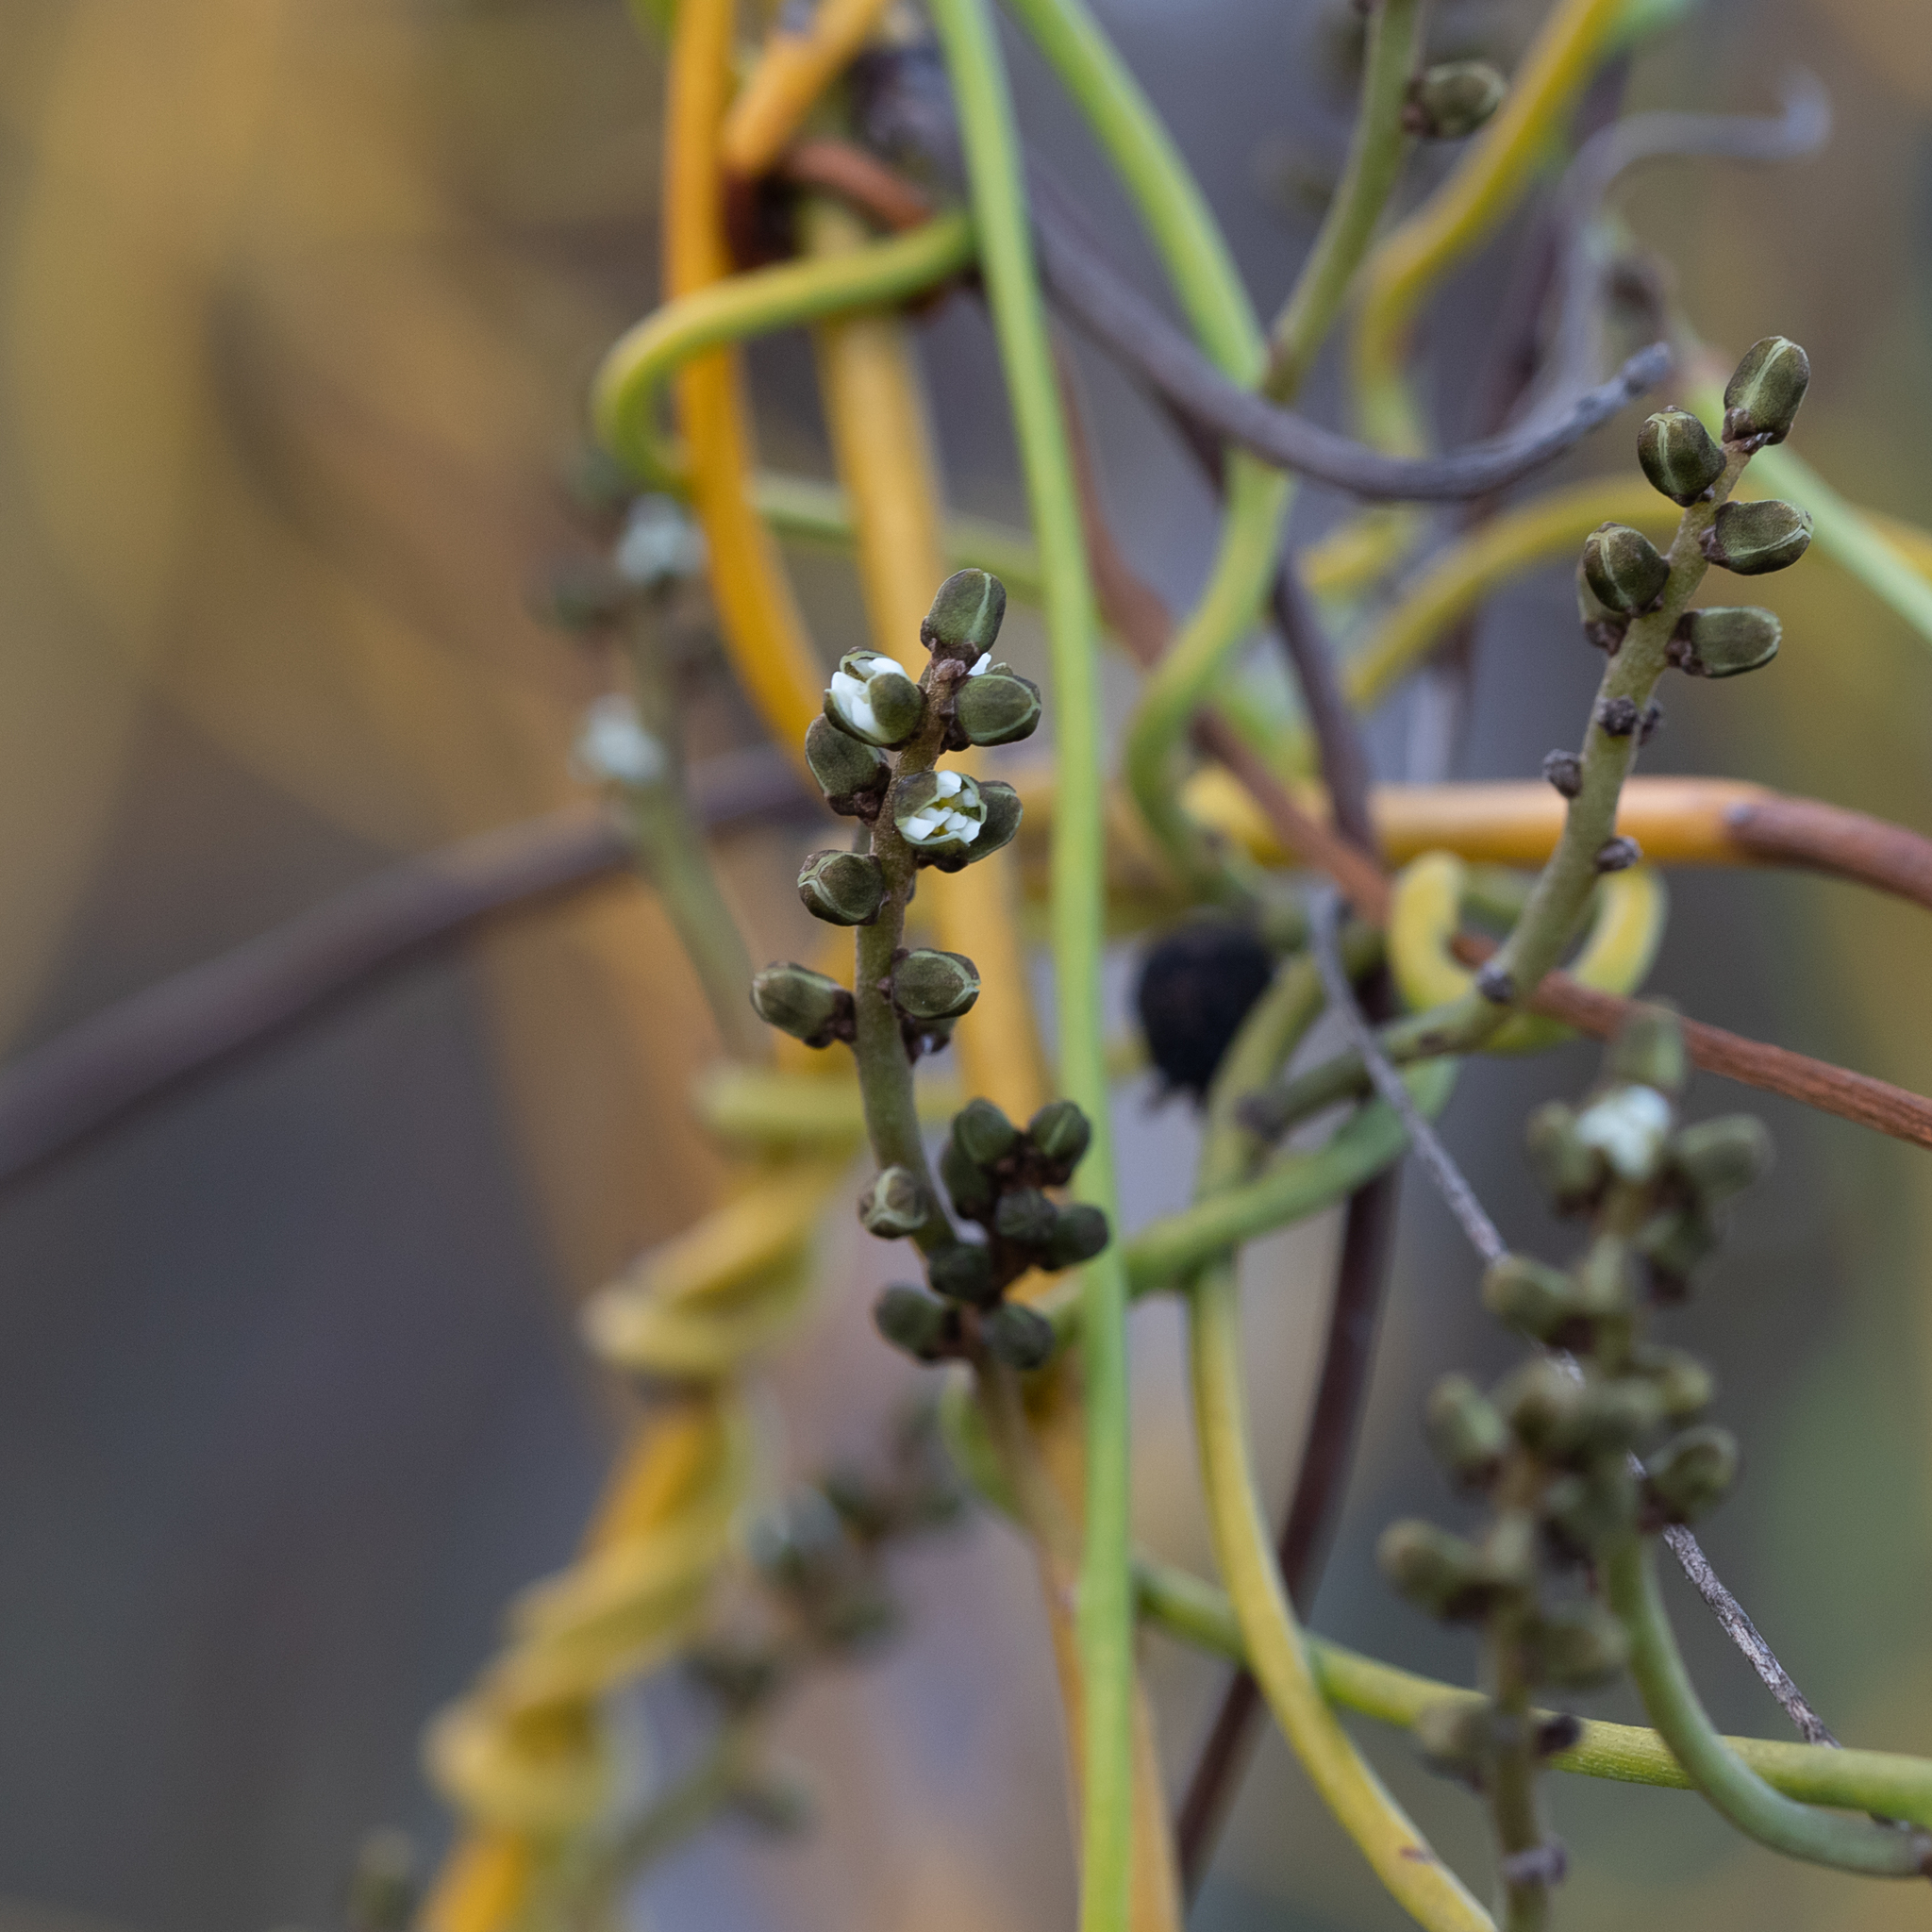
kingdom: Plantae
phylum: Tracheophyta
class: Magnoliopsida
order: Laurales
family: Lauraceae
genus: Cassytha
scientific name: Cassytha melantha
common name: Mallee stranglevine
